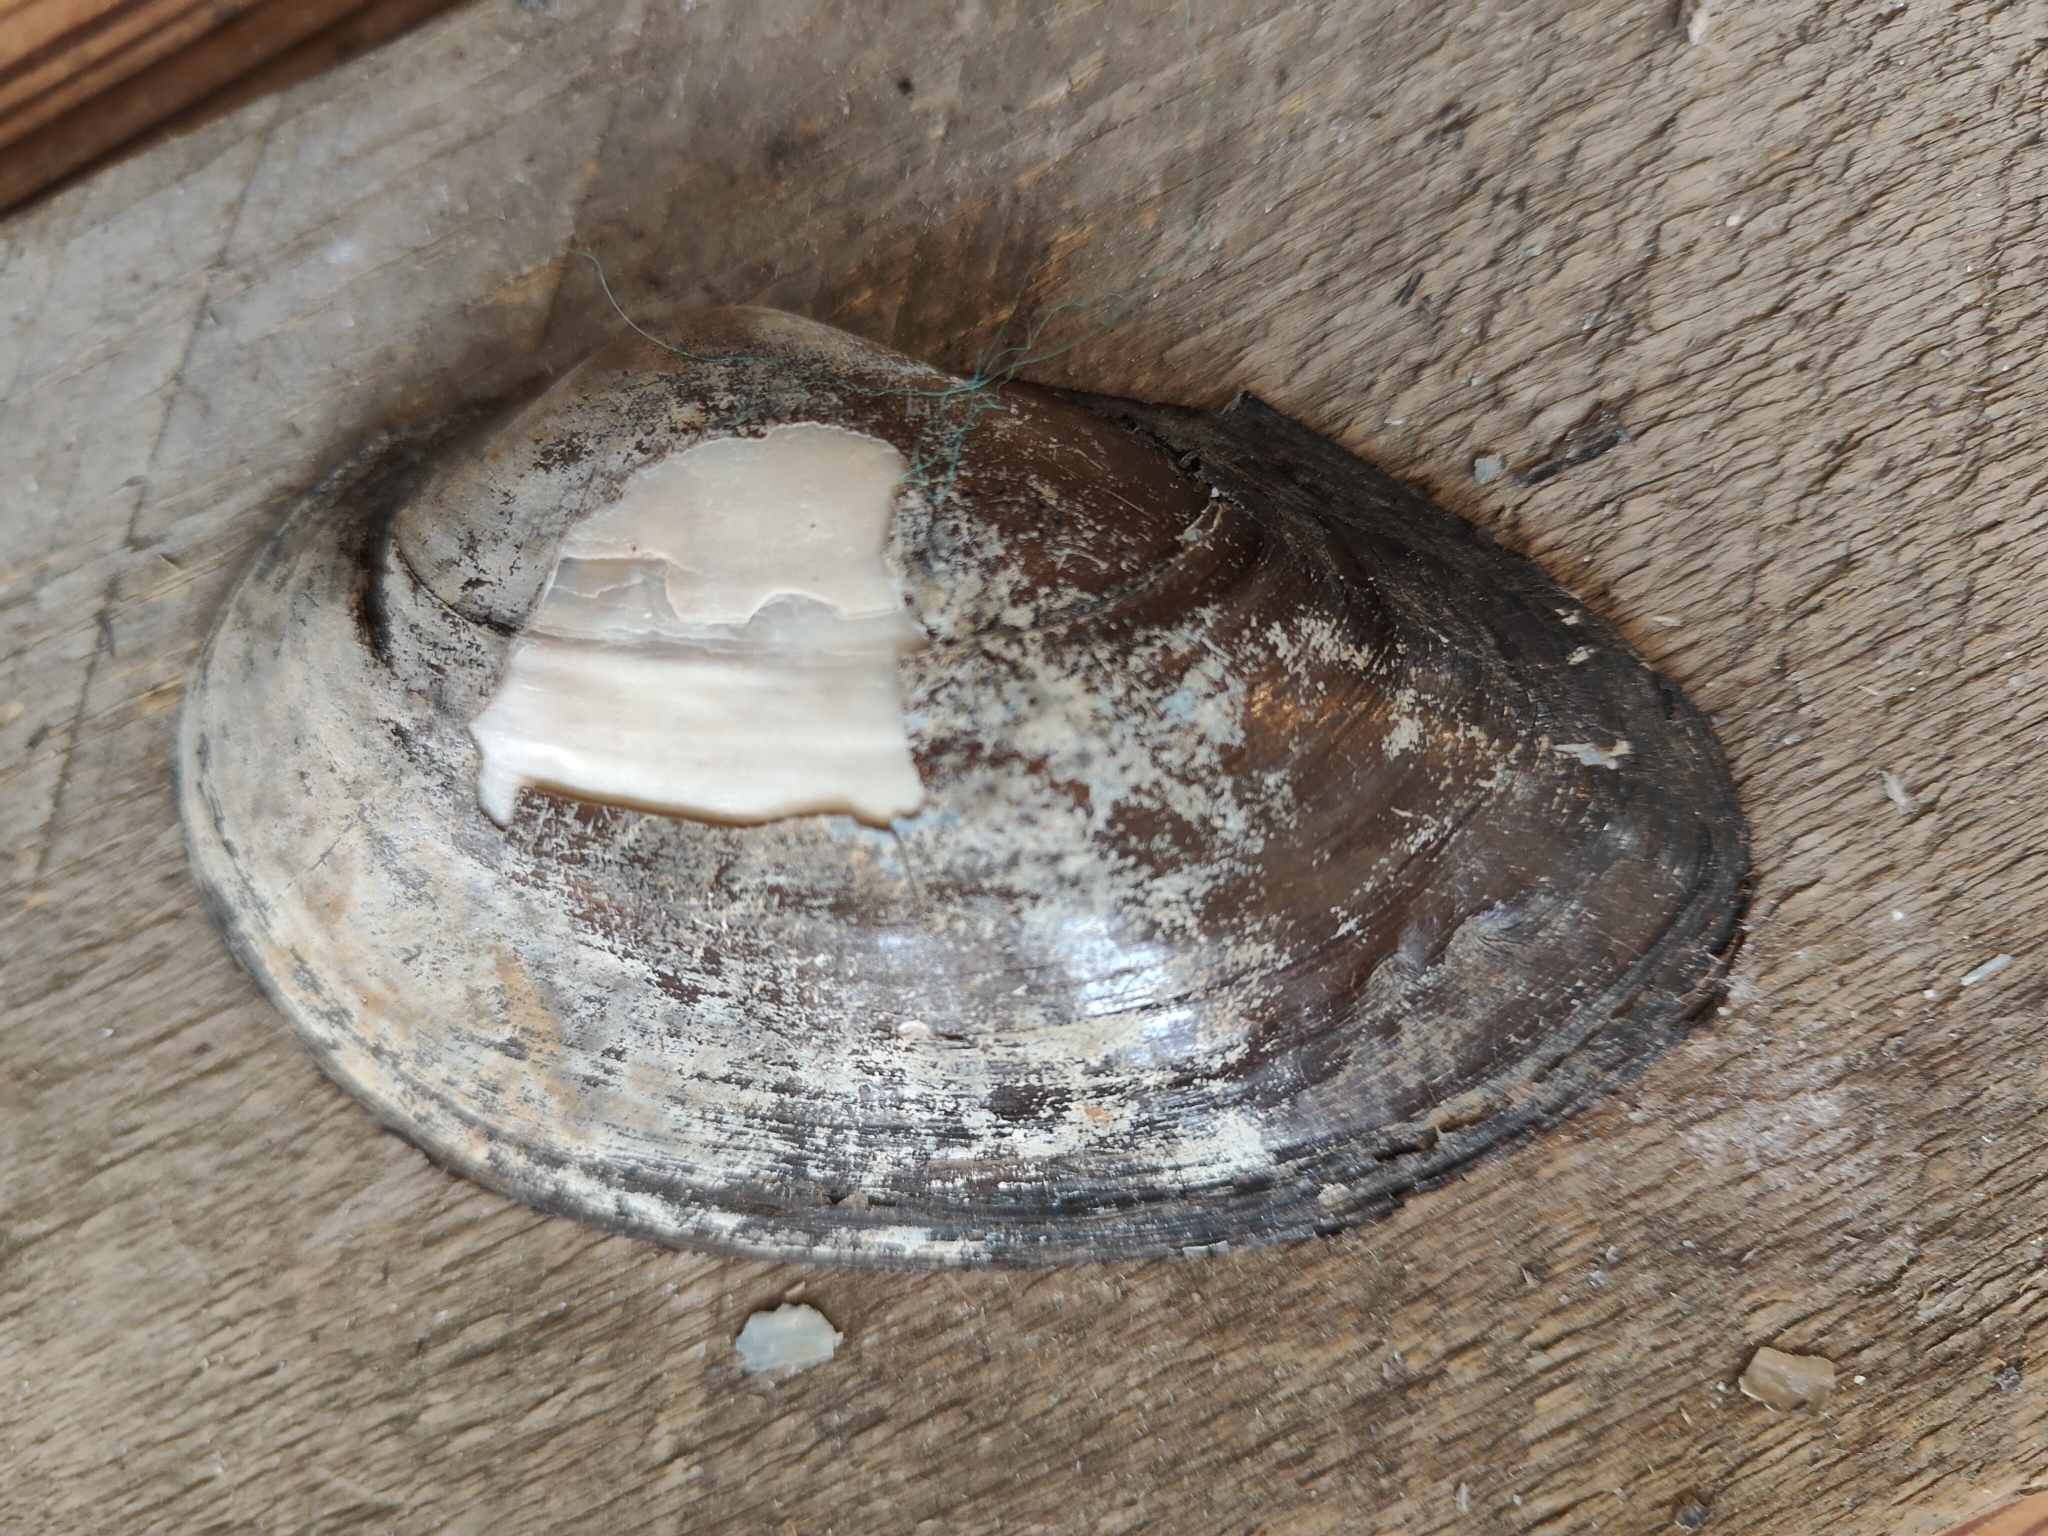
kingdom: Animalia
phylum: Mollusca
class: Bivalvia
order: Unionida
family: Unionidae
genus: Pyganodon
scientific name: Pyganodon grandis
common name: Giant floater
